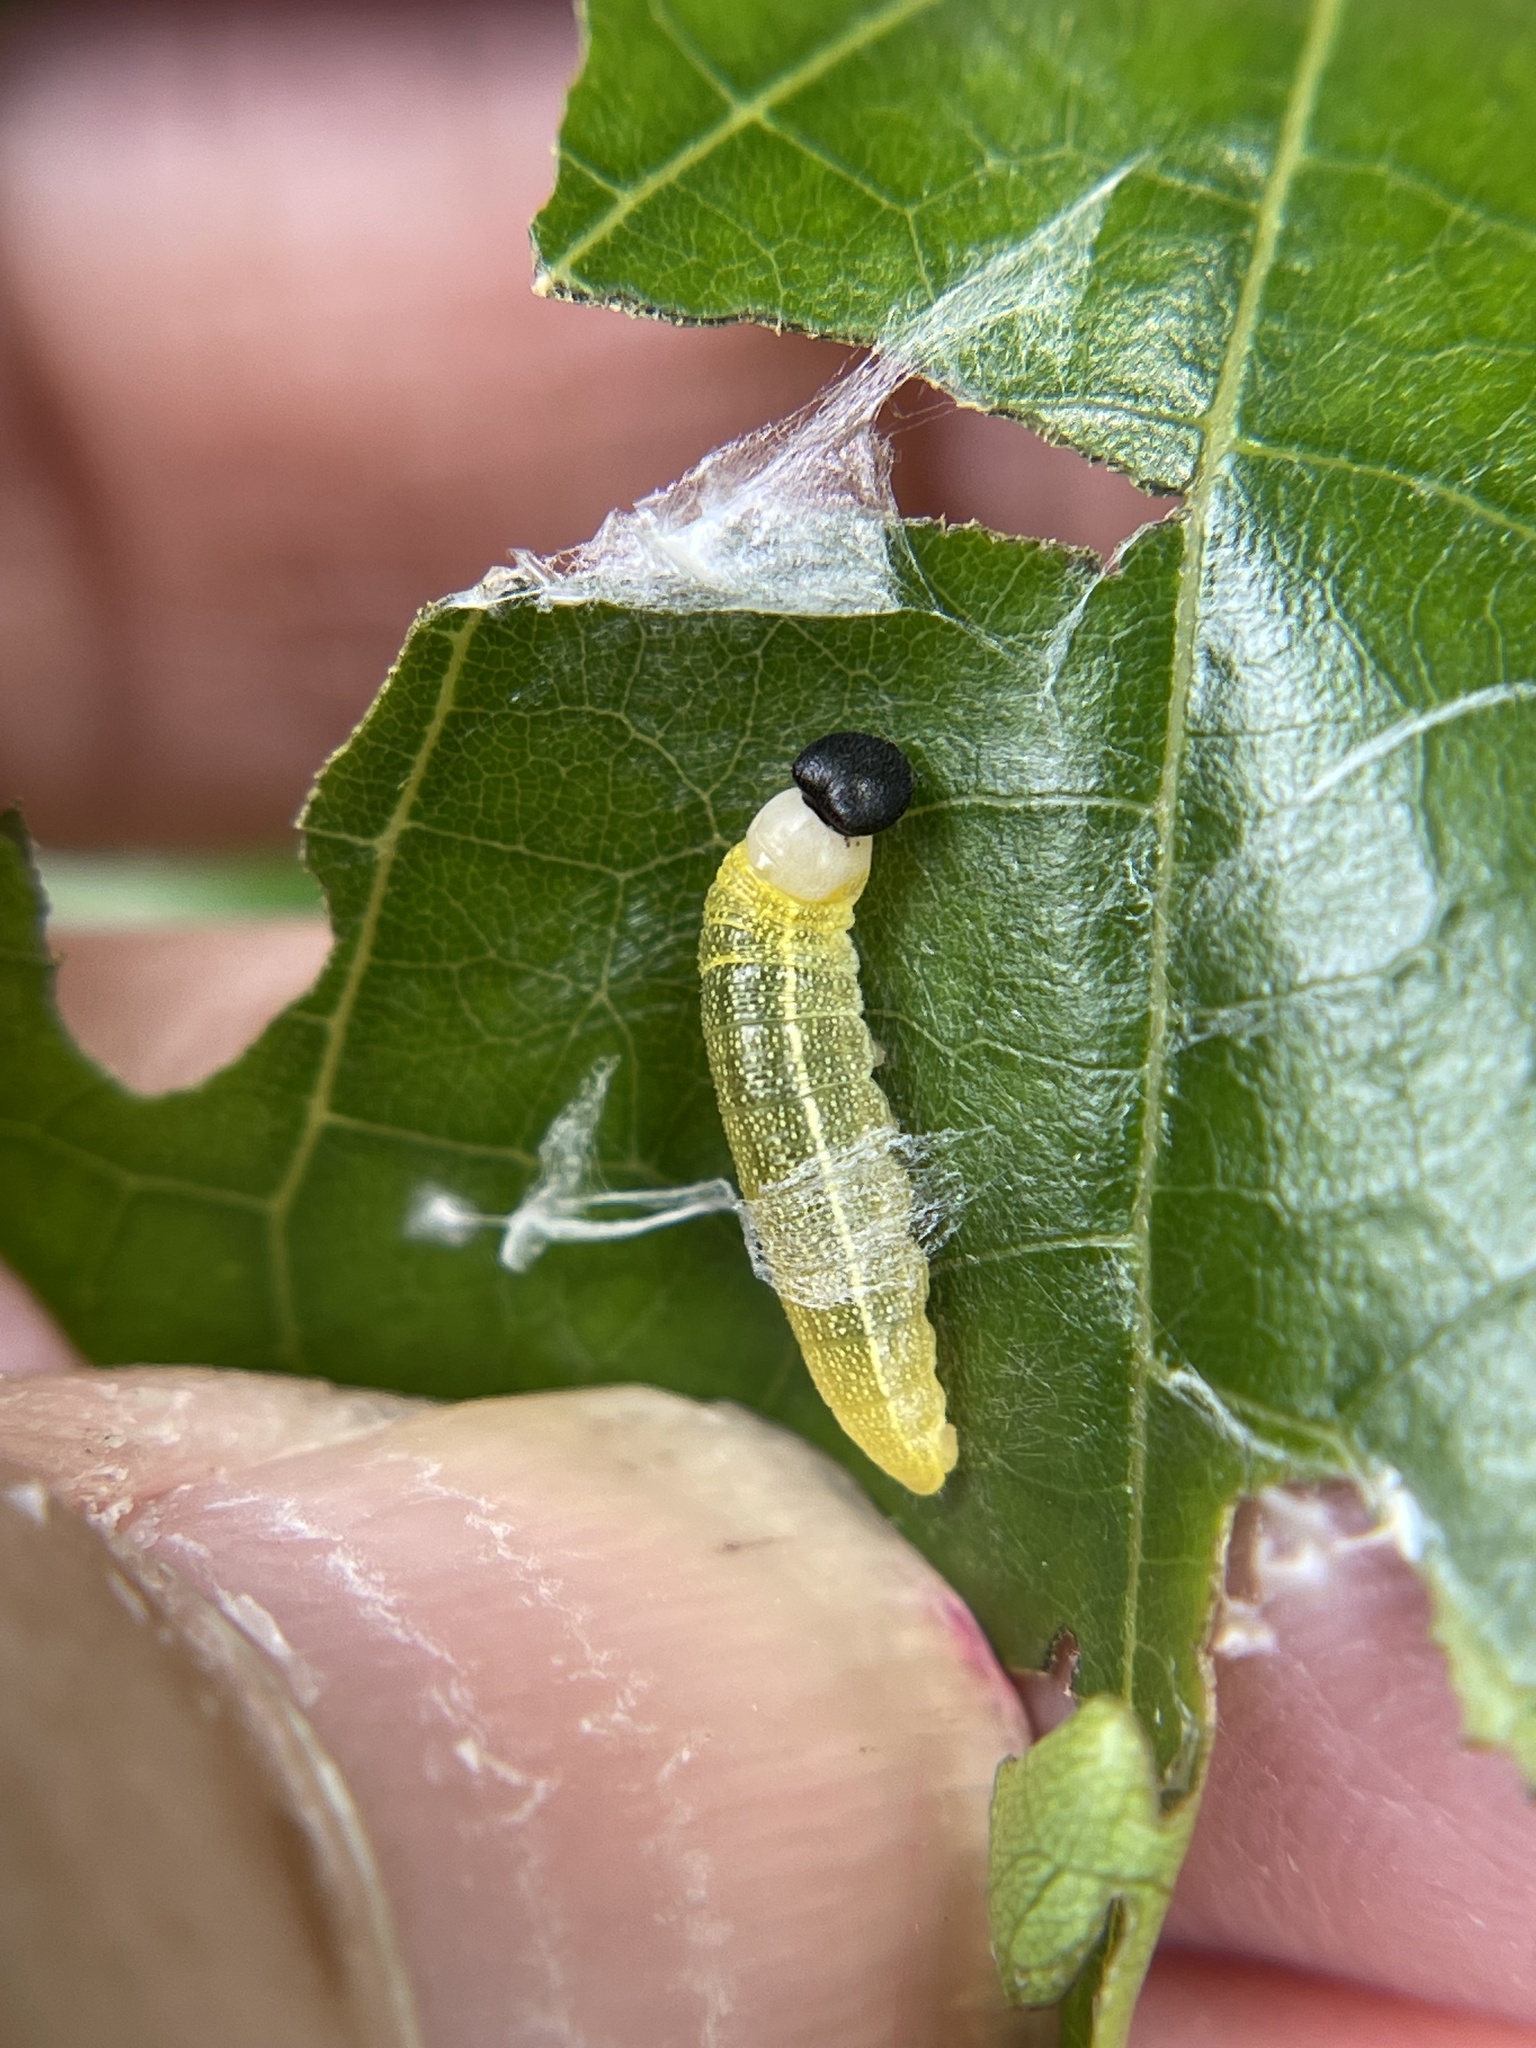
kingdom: Animalia
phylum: Arthropoda
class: Insecta
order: Lepidoptera
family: Hesperiidae
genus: Polygonus
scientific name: Polygonus leo
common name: Hammoch skipper
